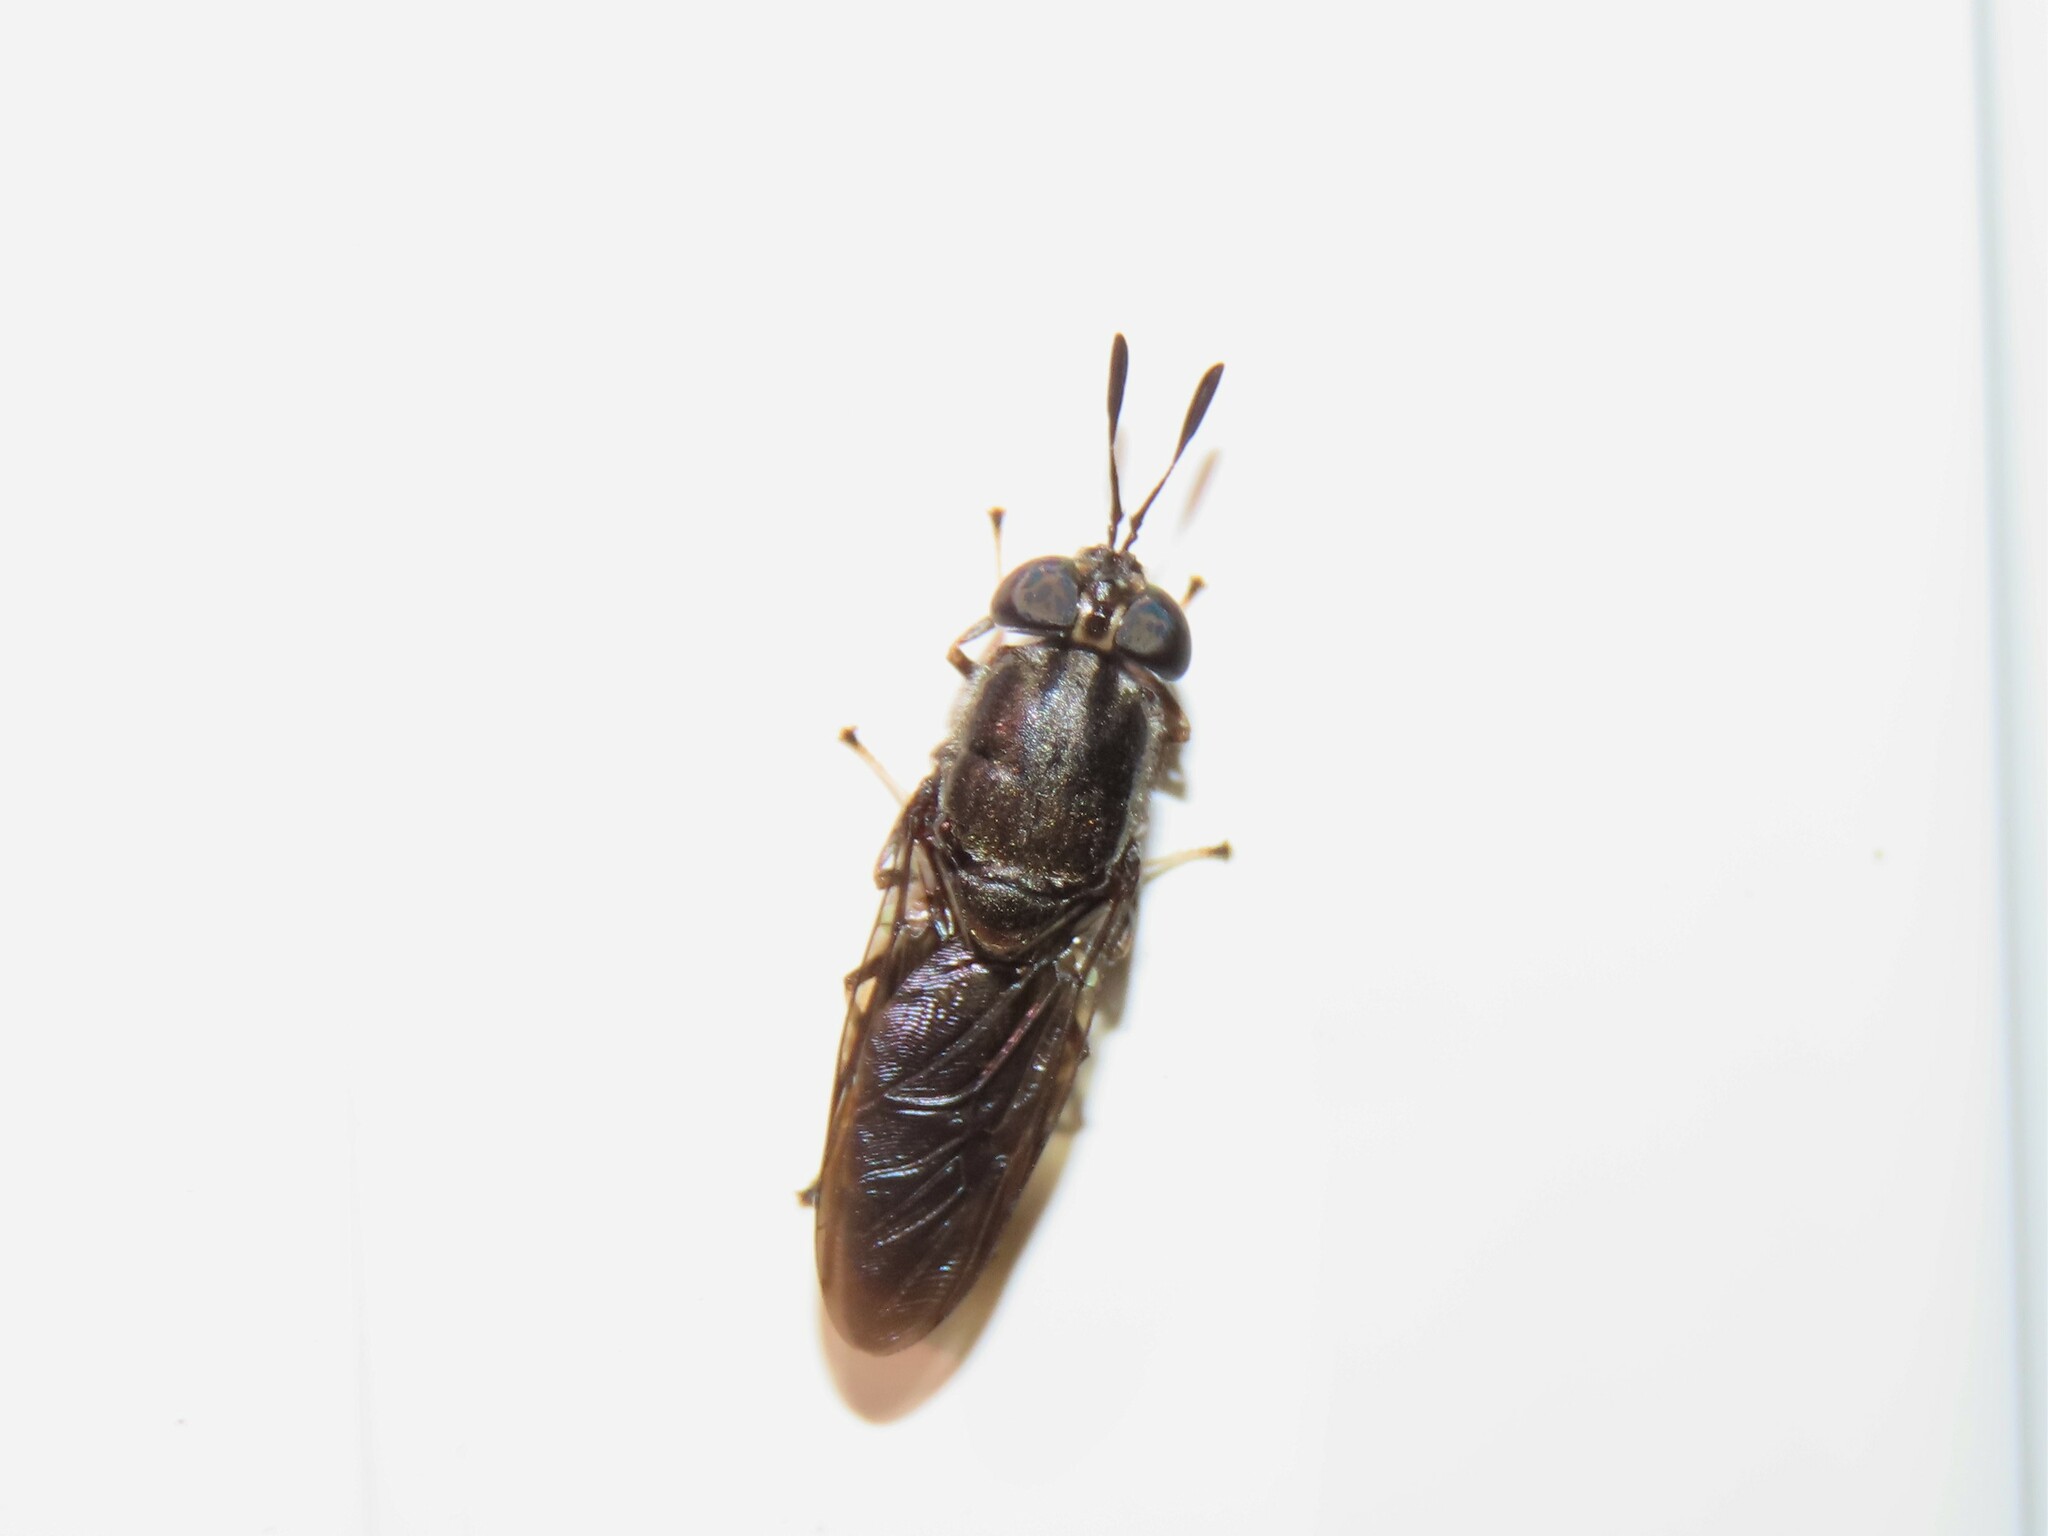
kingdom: Animalia
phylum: Arthropoda
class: Insecta
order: Diptera
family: Stratiomyidae
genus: Hermetia
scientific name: Hermetia sexmaculata
